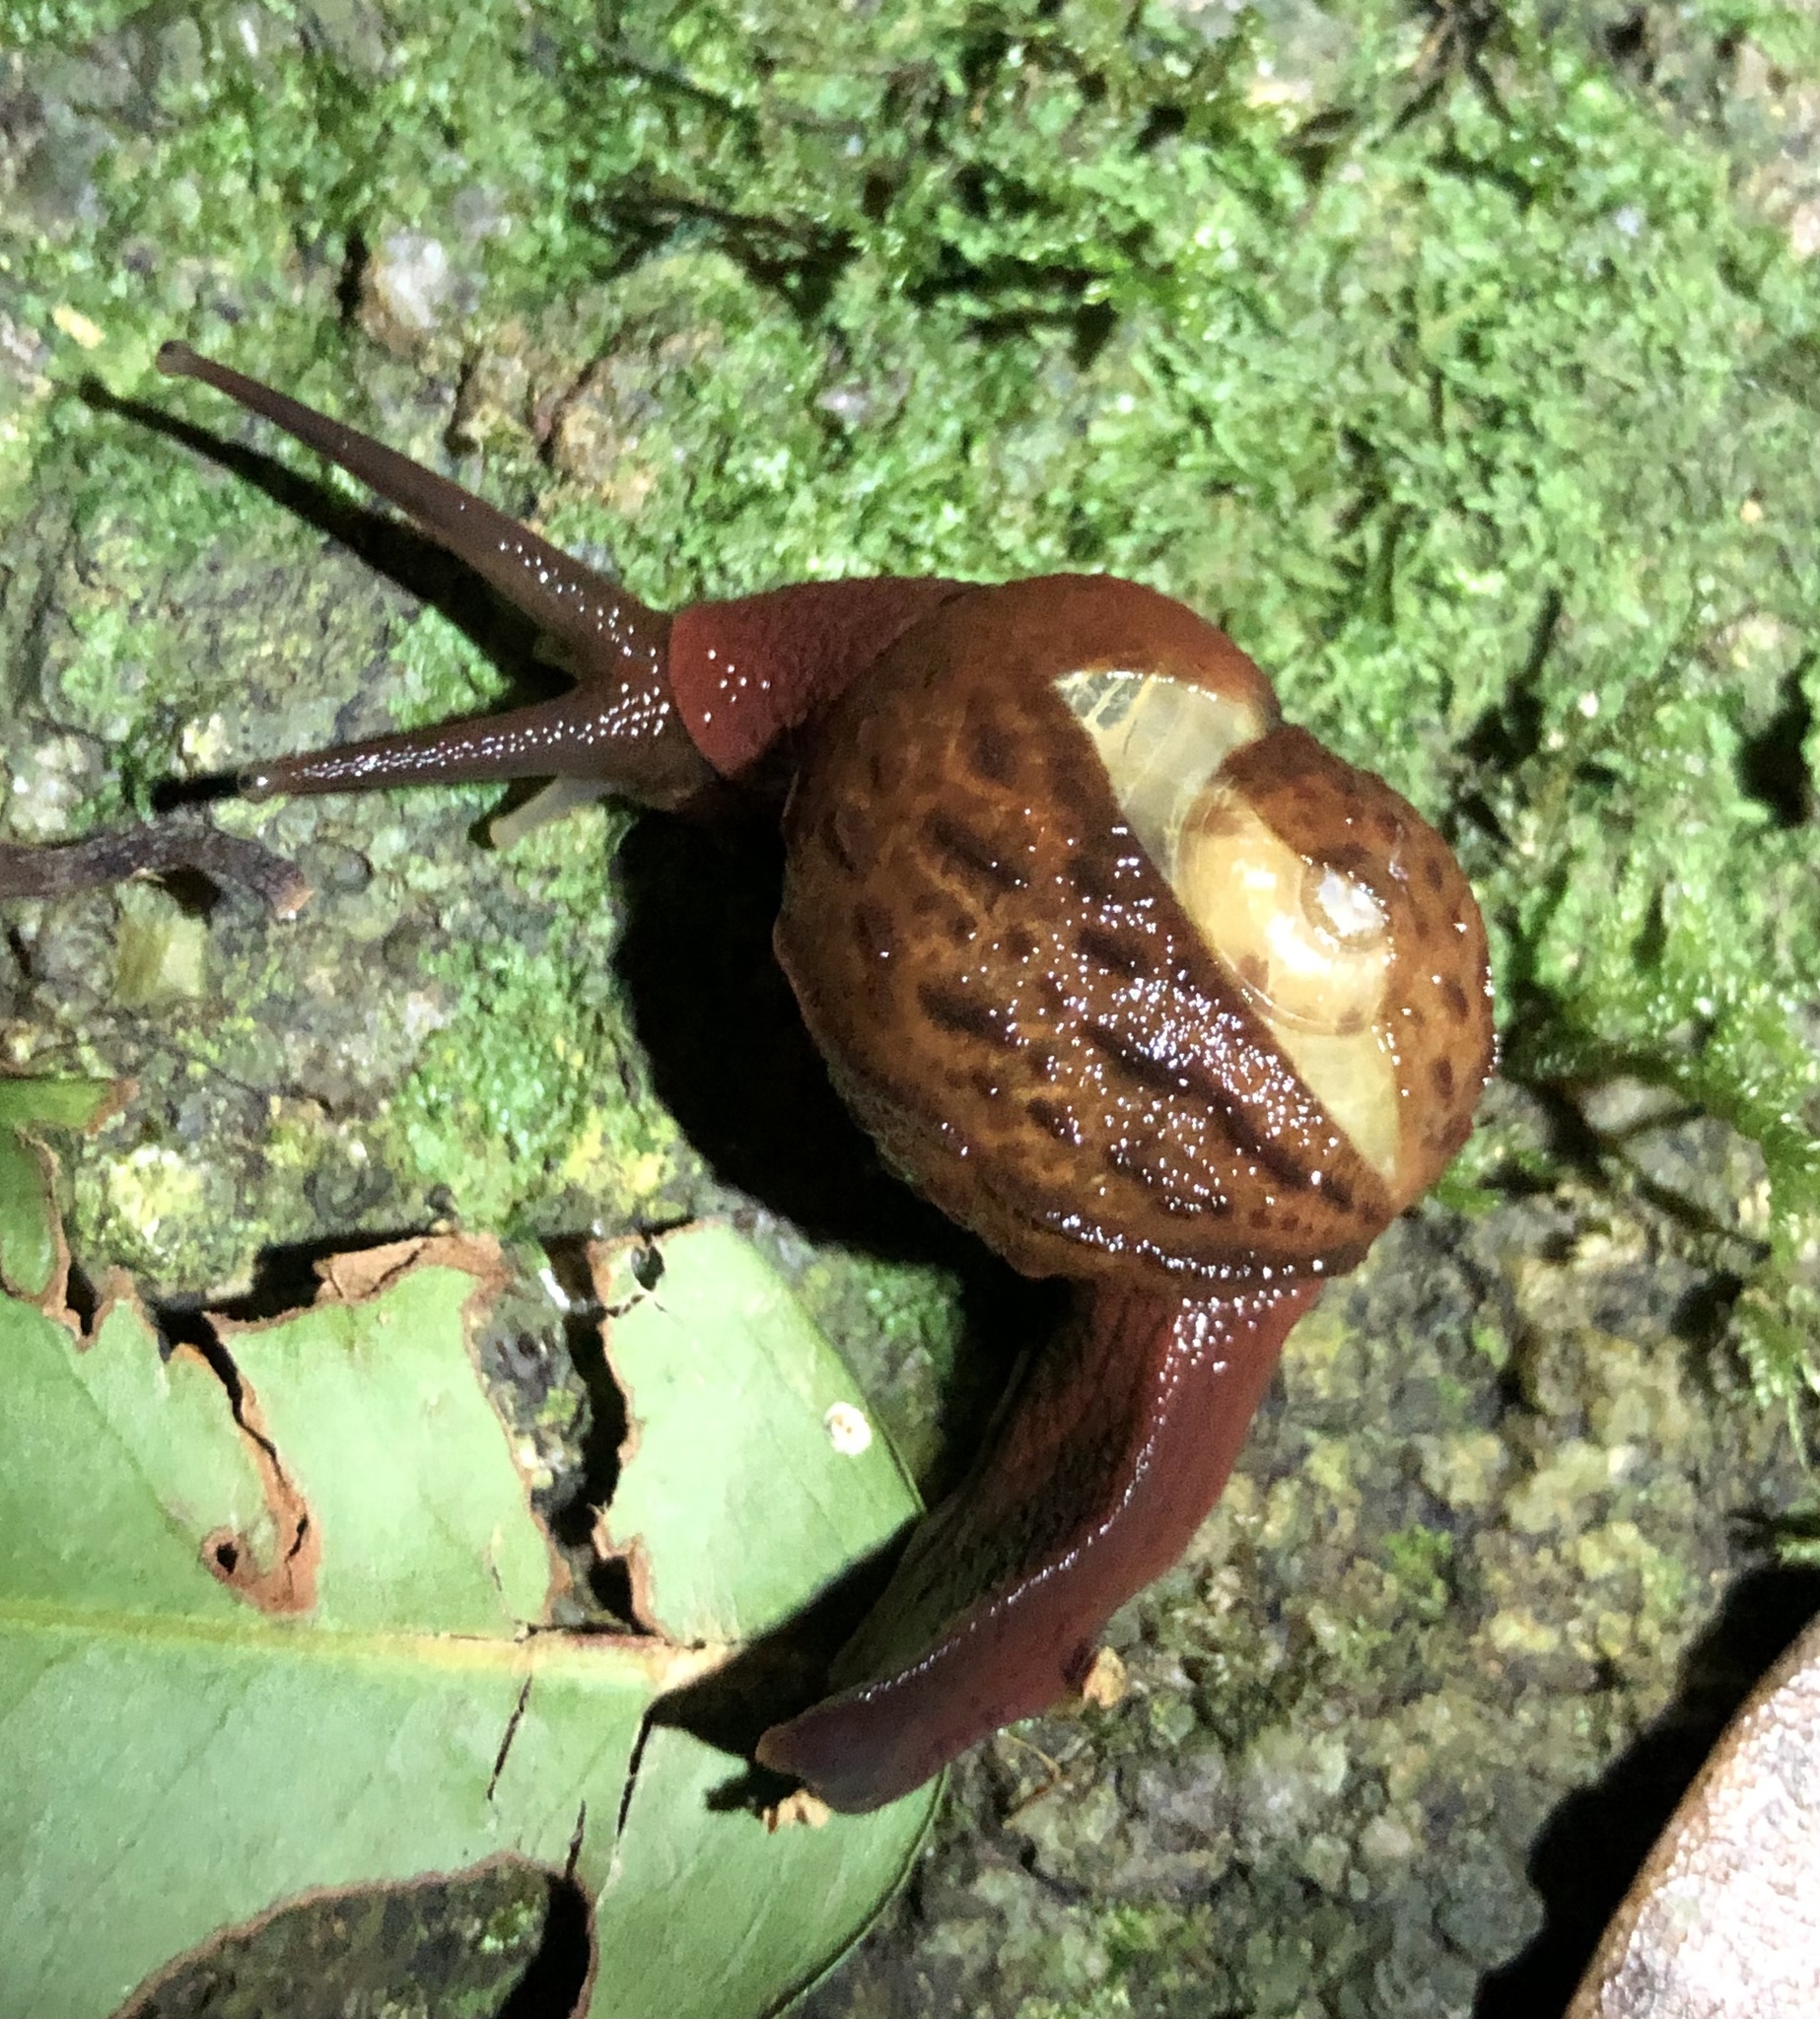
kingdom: Animalia
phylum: Mollusca
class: Gastropoda
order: Stylommatophora
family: Helicarionidae
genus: Fastosarion
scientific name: Fastosarion brazieri
